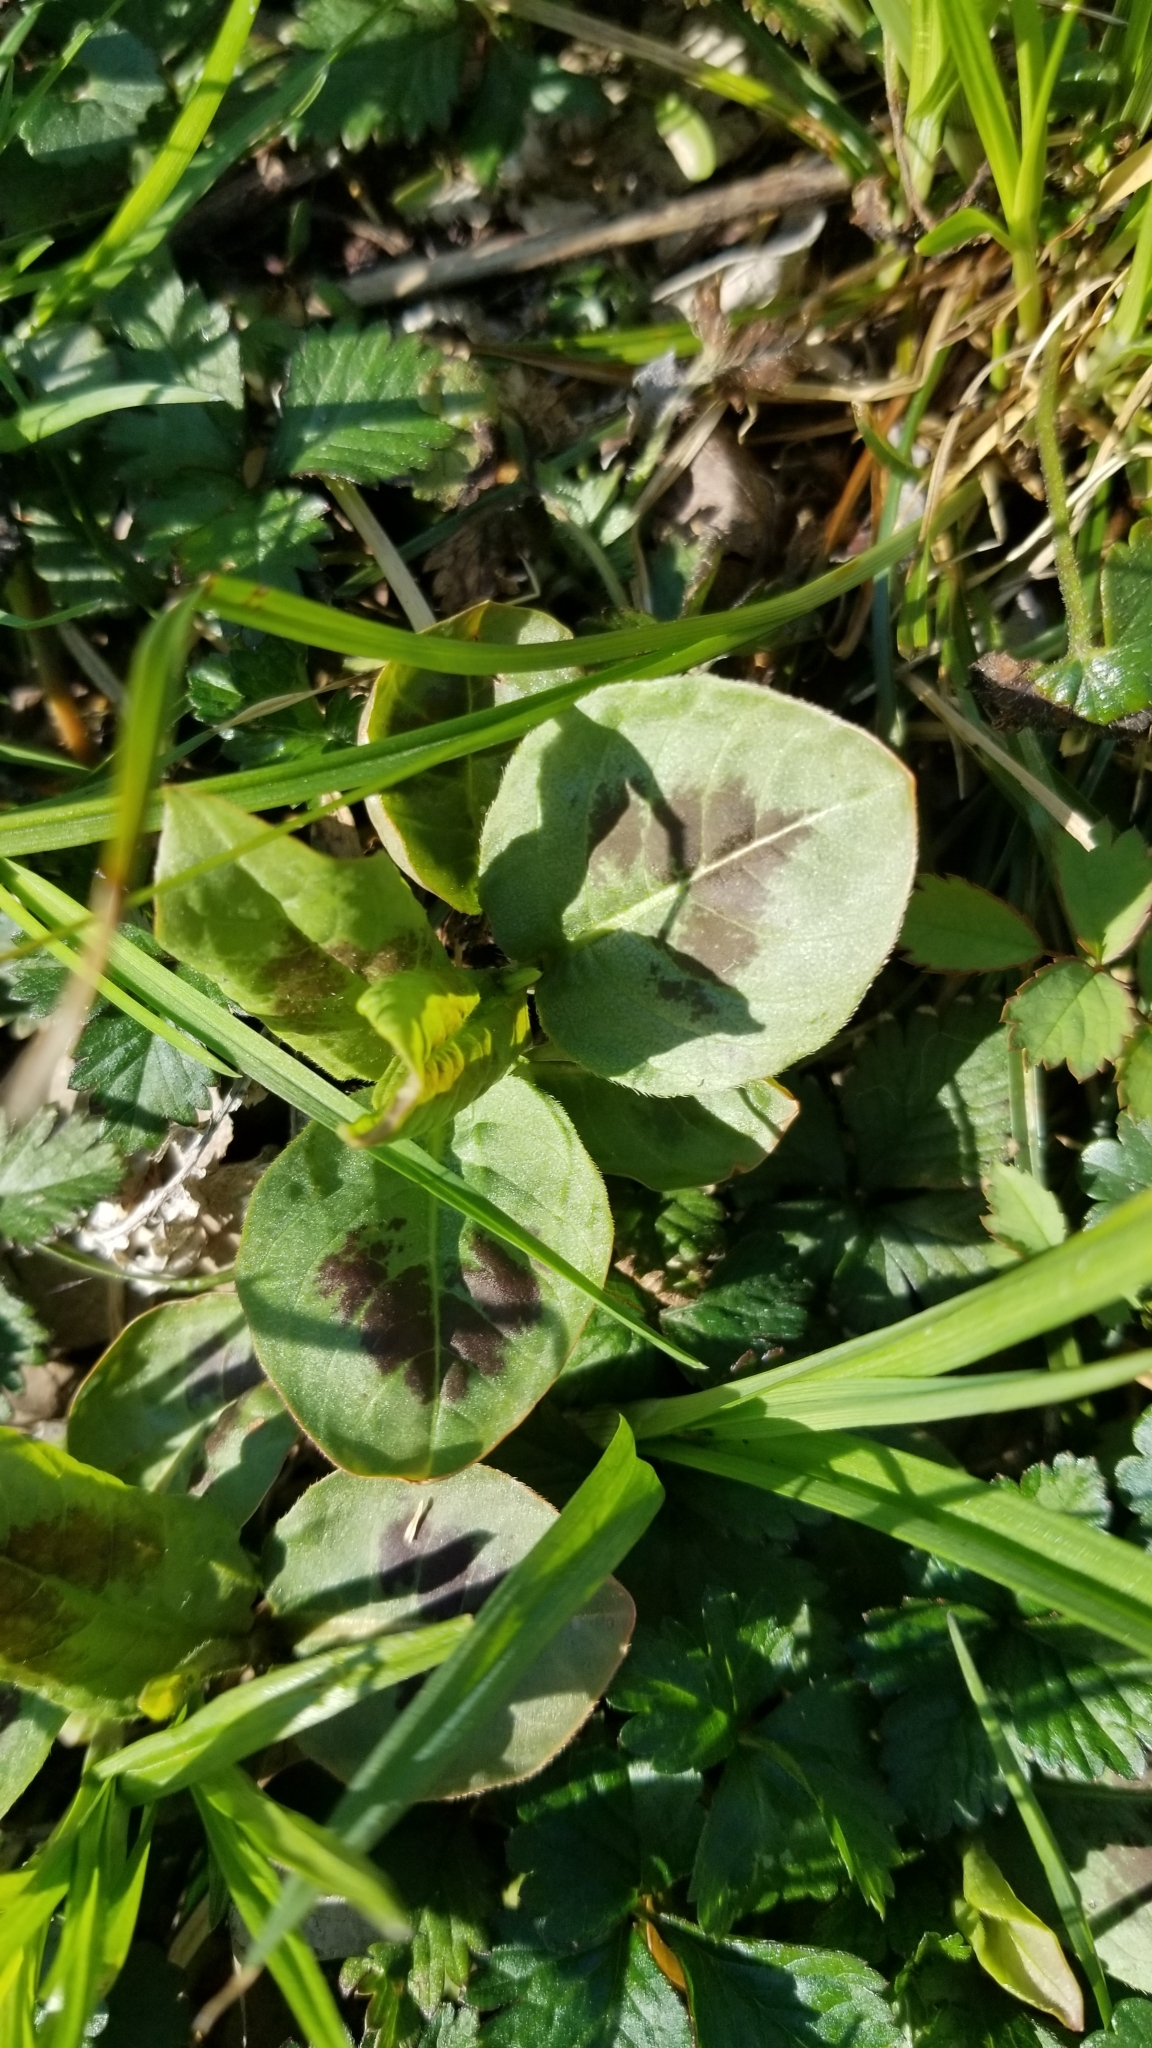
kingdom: Plantae
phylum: Tracheophyta
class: Magnoliopsida
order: Caryophyllales
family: Polygonaceae
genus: Persicaria
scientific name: Persicaria virginiana
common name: Jumpseed
